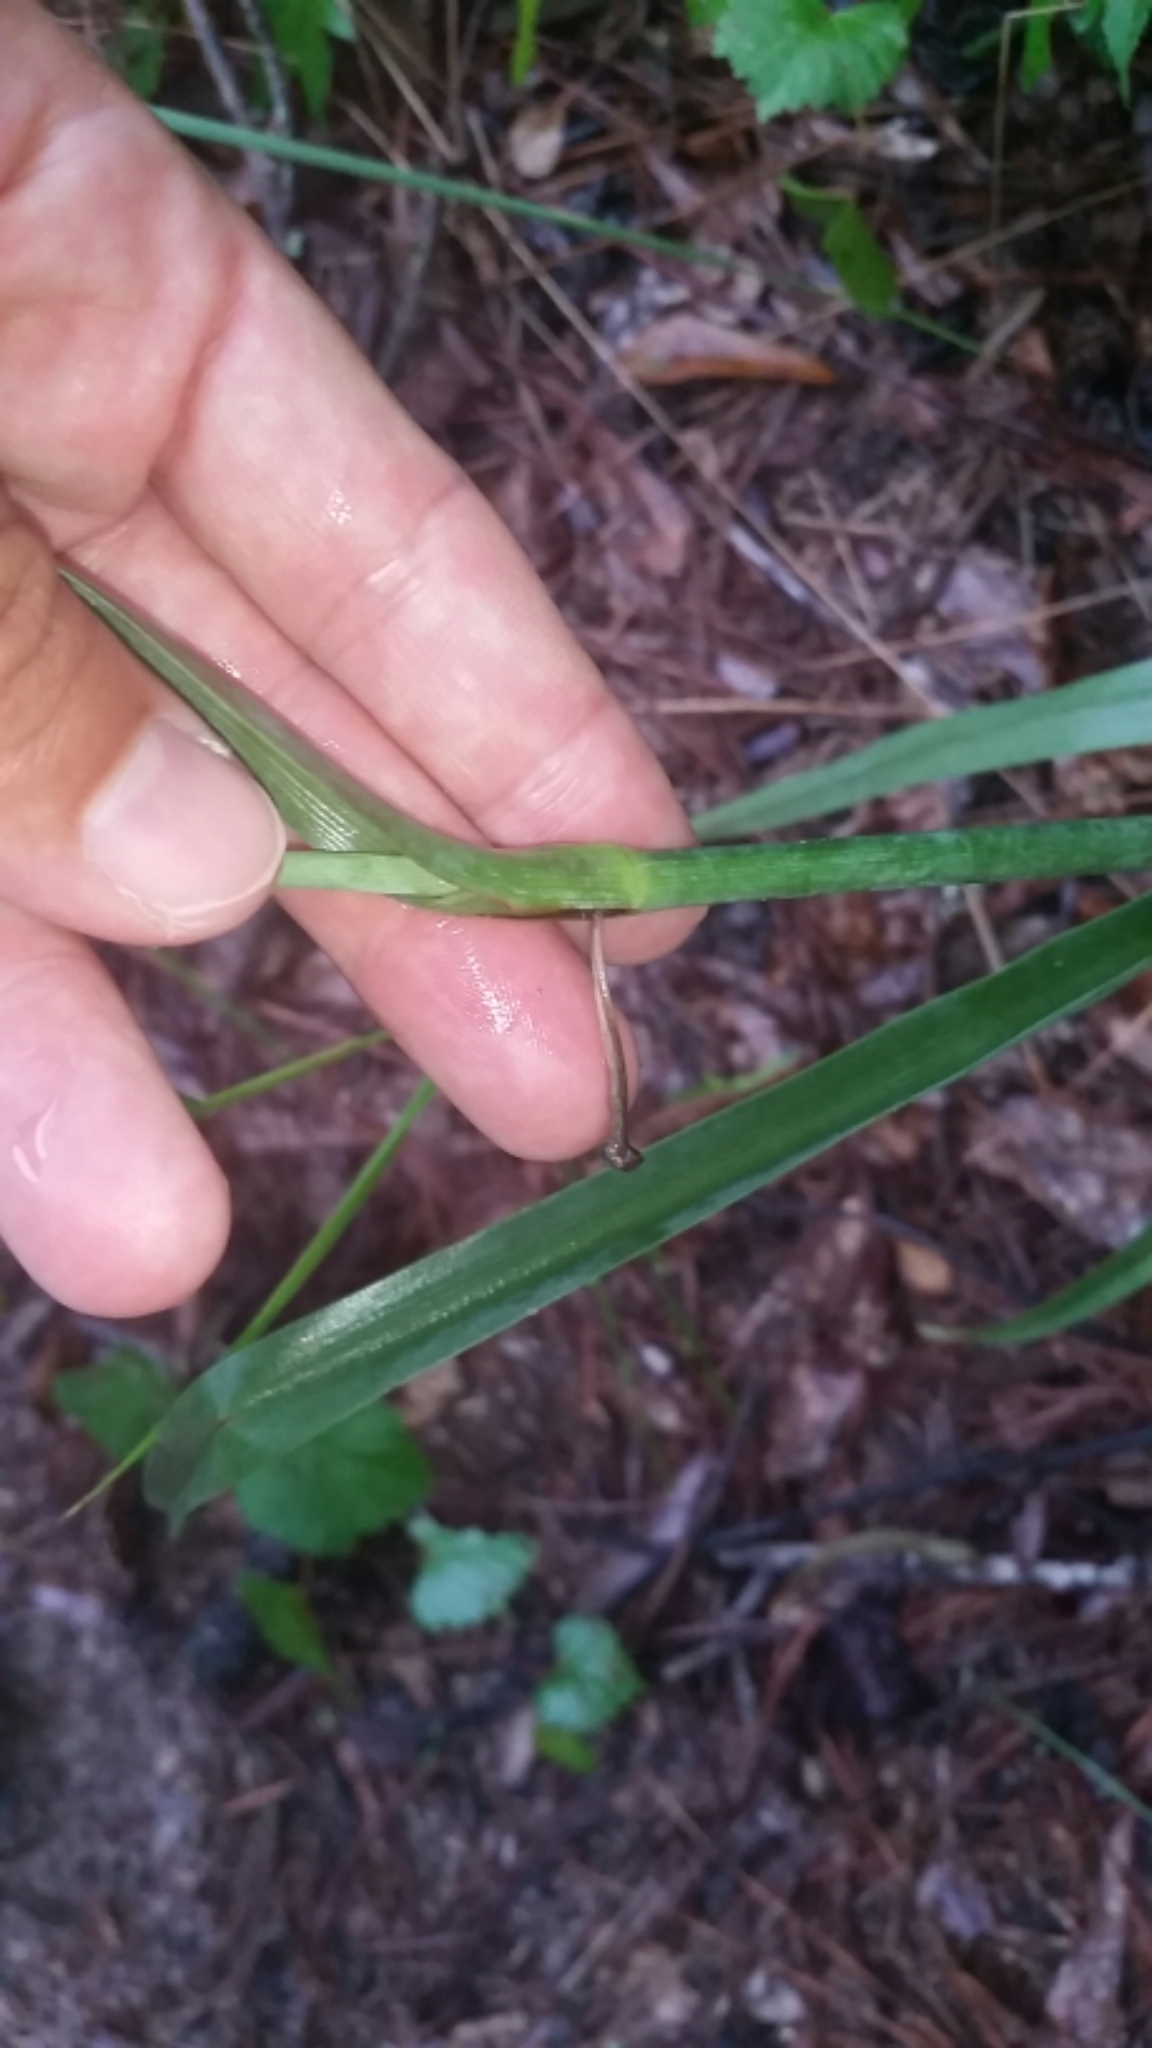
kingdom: Plantae
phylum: Tracheophyta
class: Liliopsida
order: Commelinales
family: Commelinaceae
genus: Tradescantia
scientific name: Tradescantia ohiensis
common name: Ohio spiderwort
